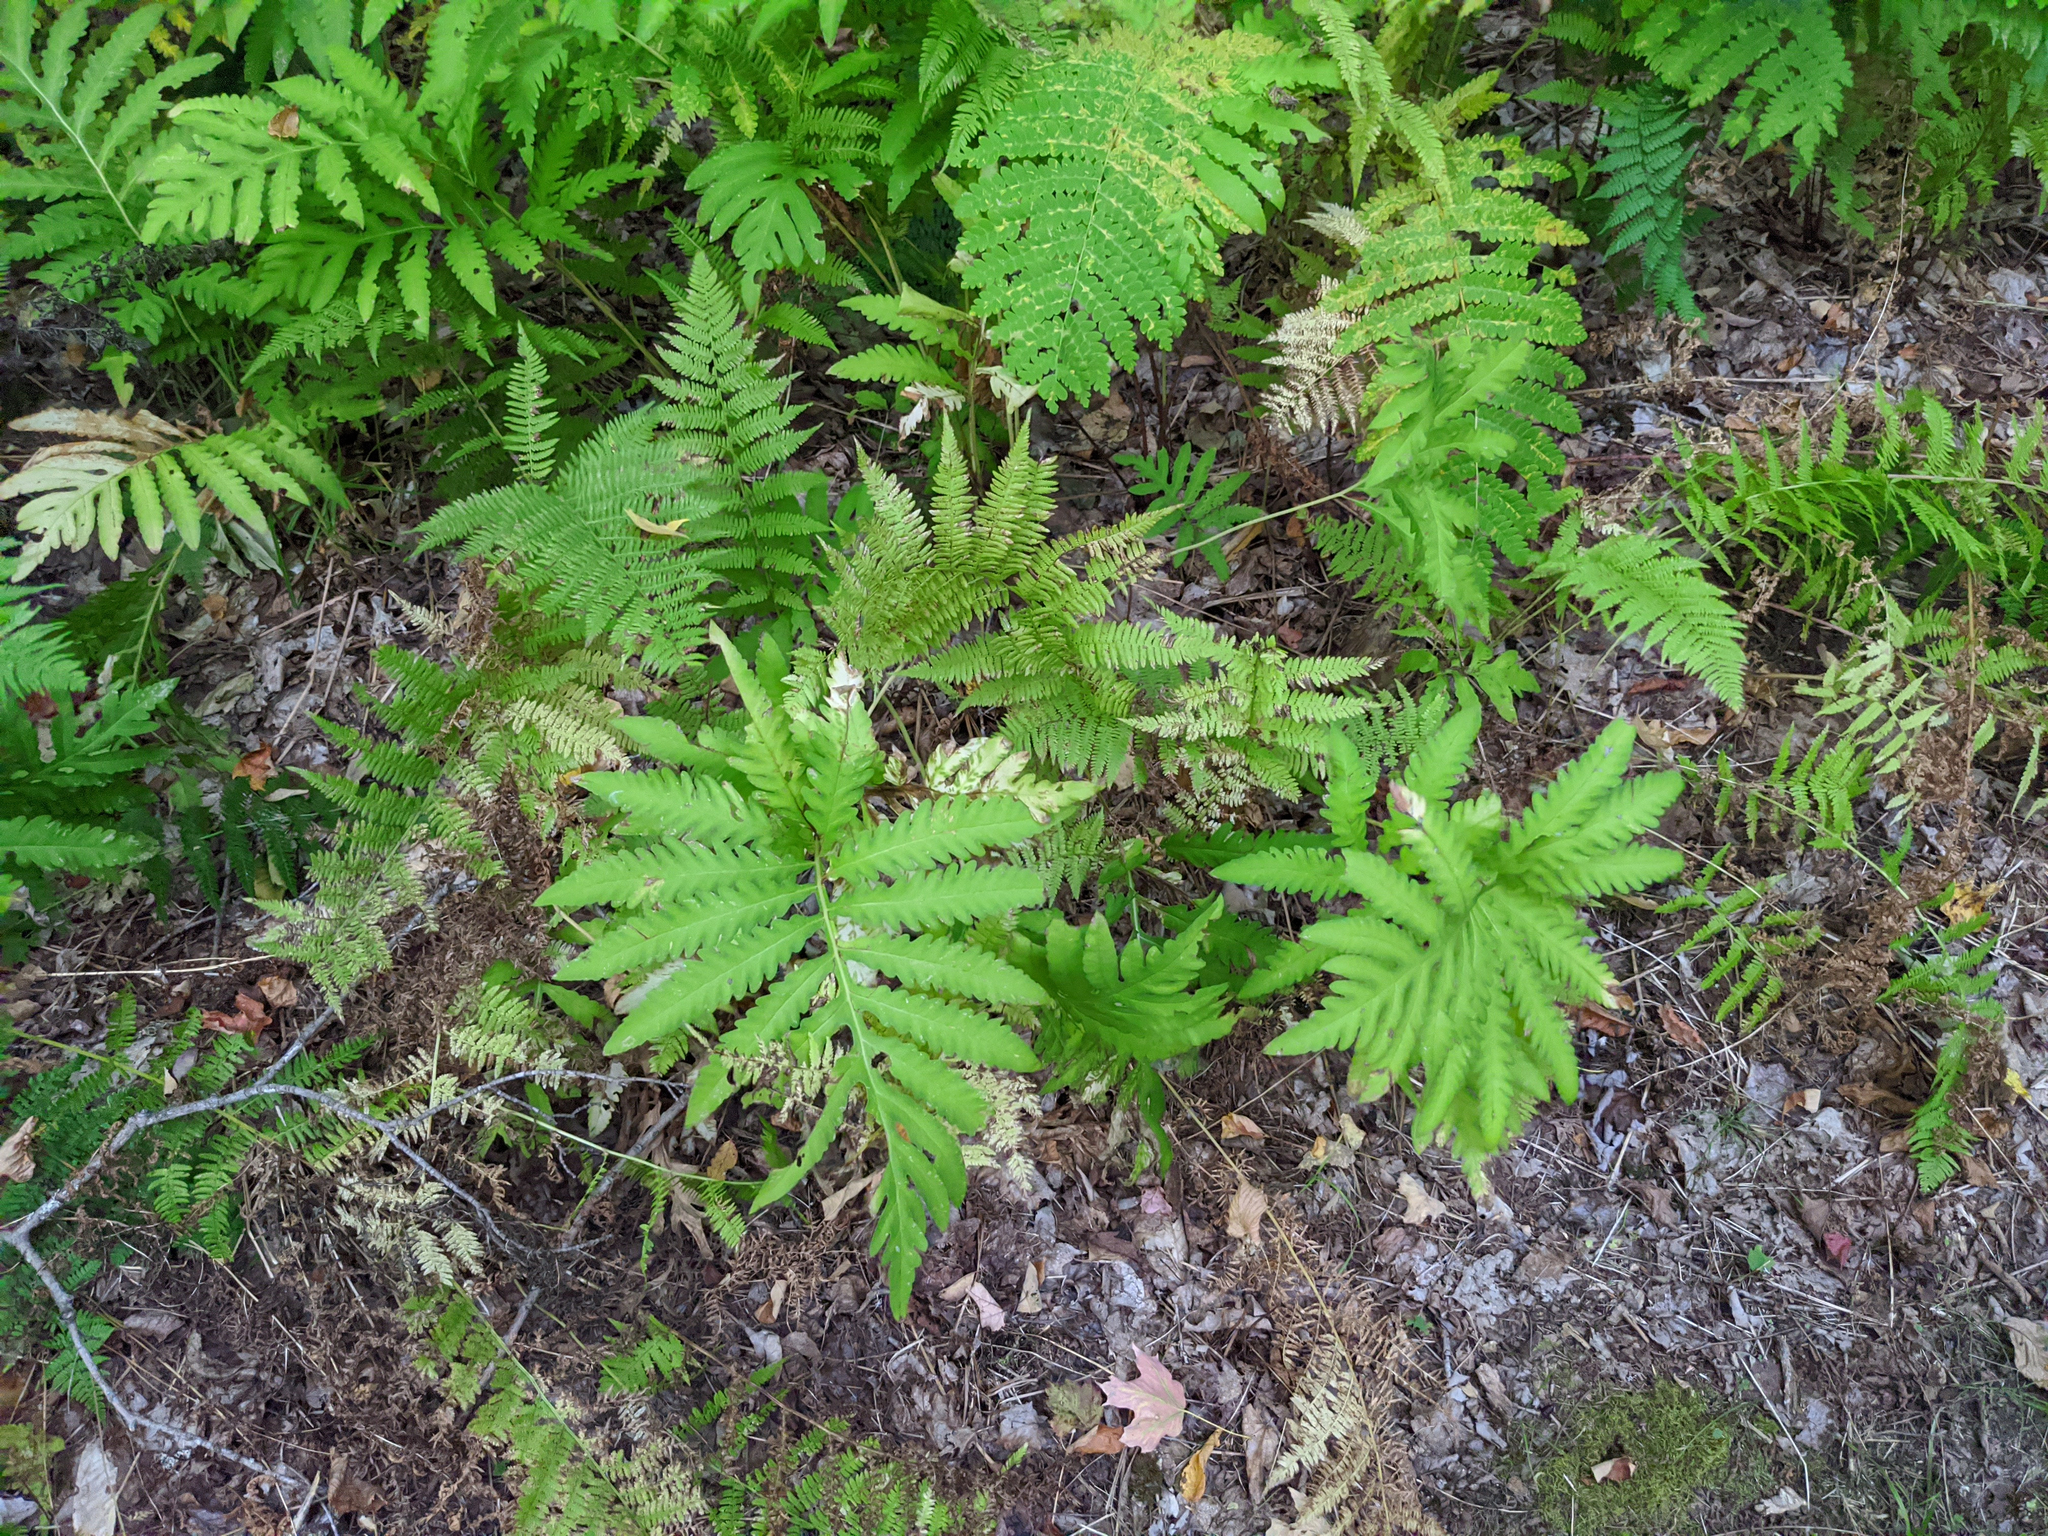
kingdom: Plantae
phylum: Tracheophyta
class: Polypodiopsida
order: Polypodiales
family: Onocleaceae
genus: Onoclea
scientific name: Onoclea sensibilis
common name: Sensitive fern
